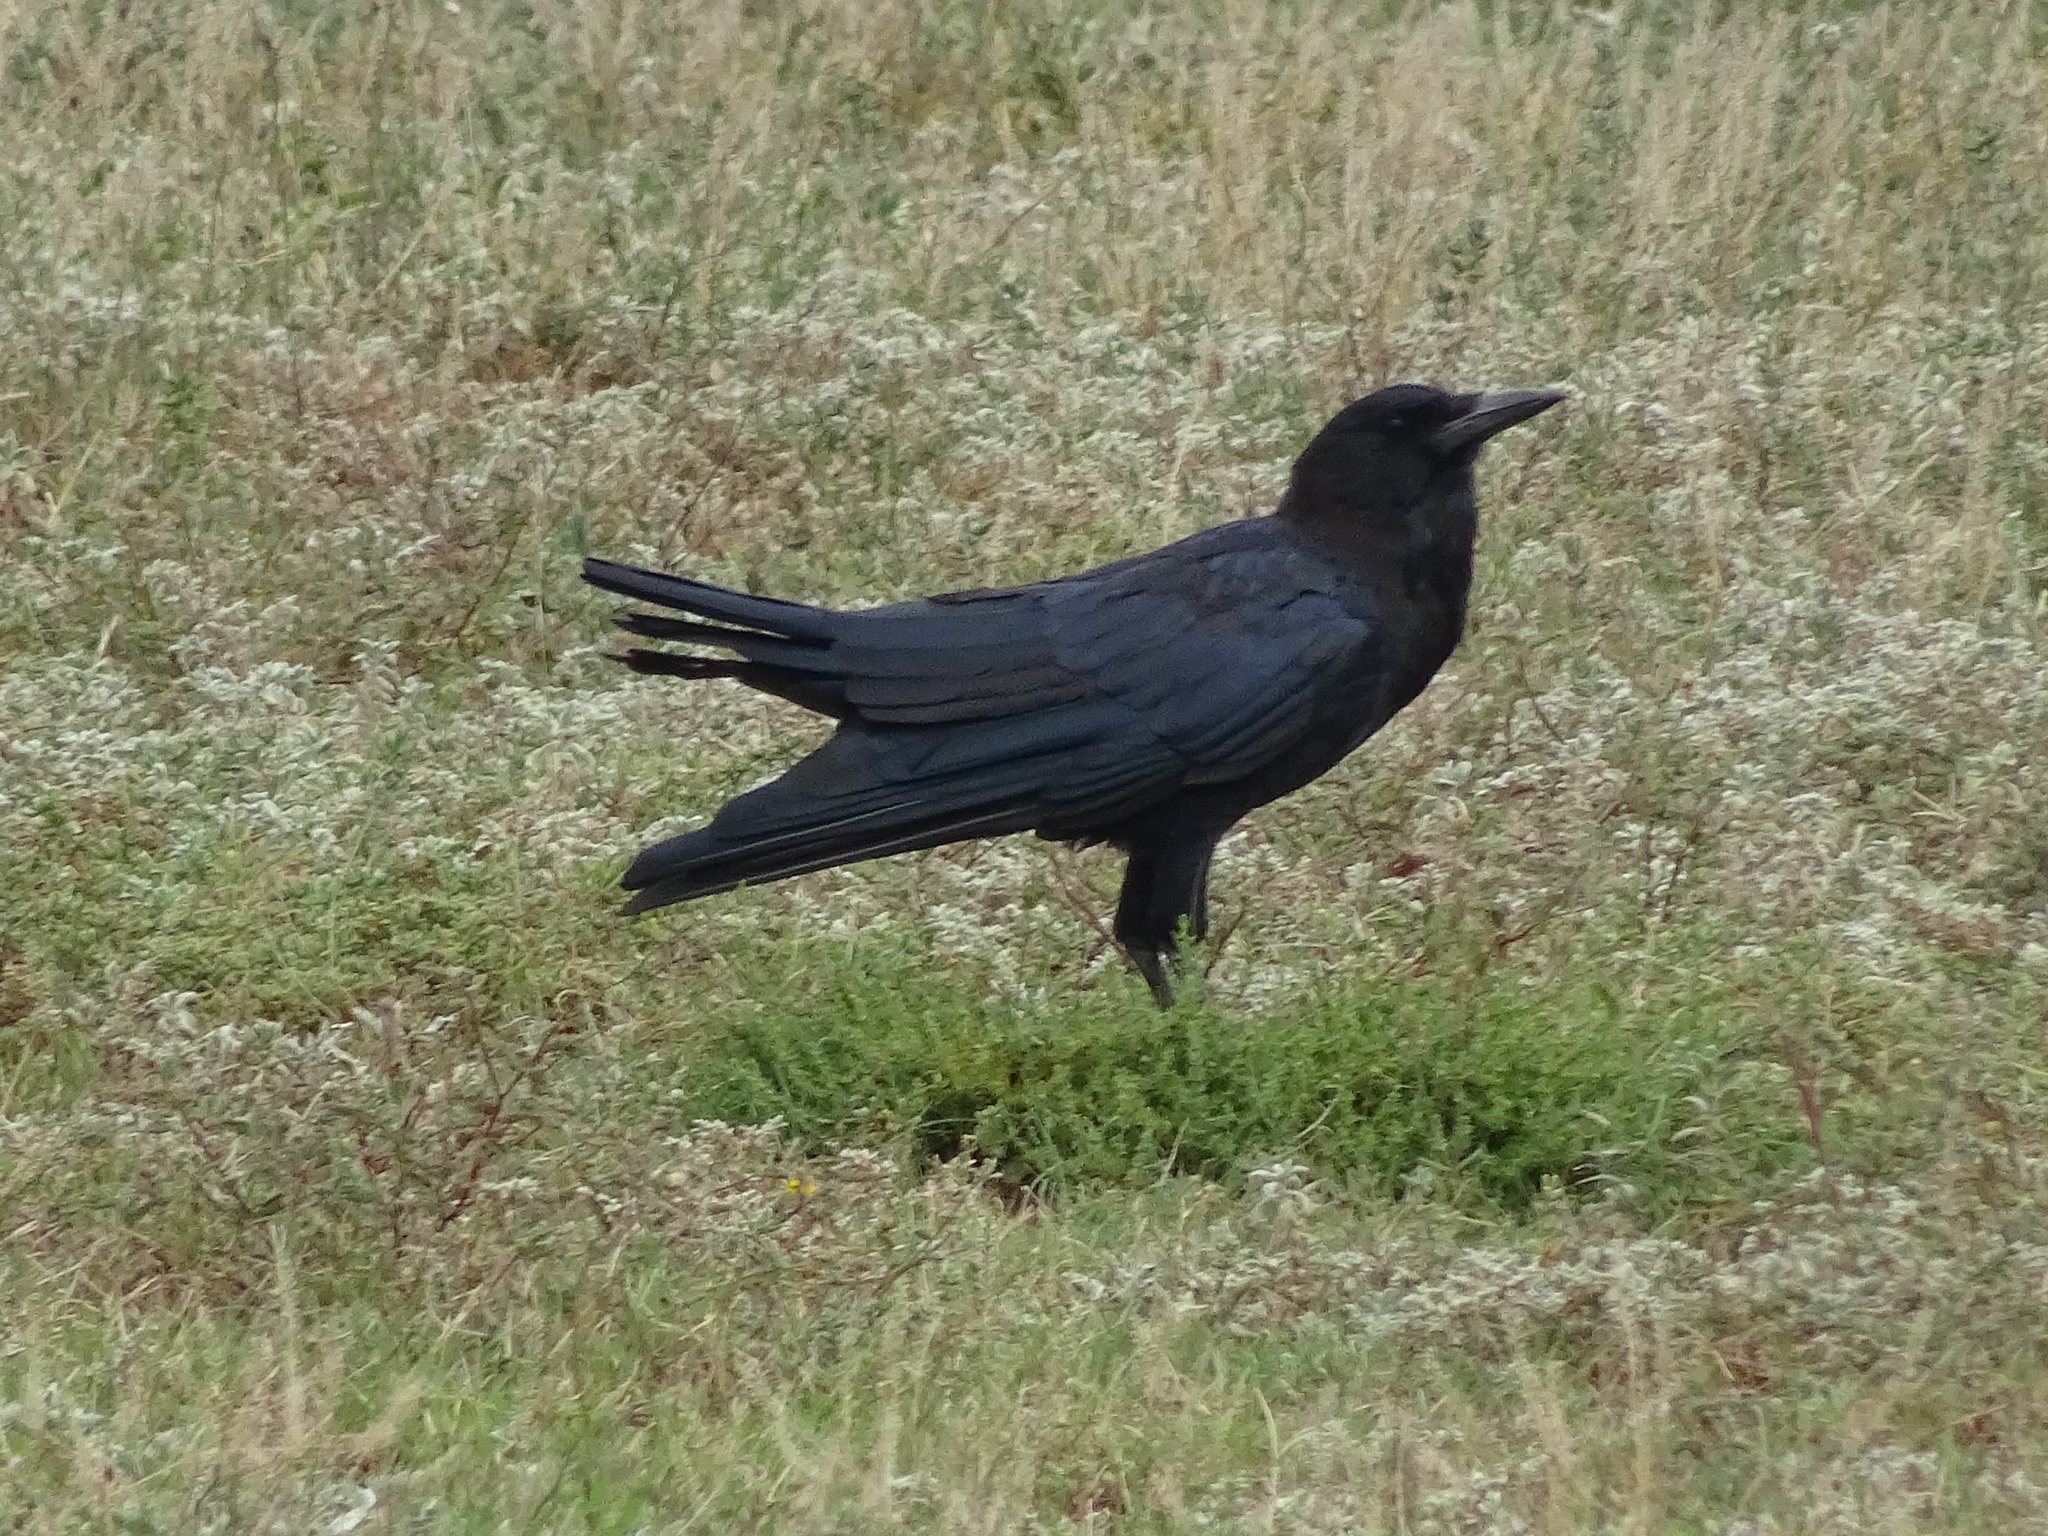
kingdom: Animalia
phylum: Chordata
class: Aves
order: Passeriformes
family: Corvidae
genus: Corvus
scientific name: Corvus capensis
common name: Cape crow
